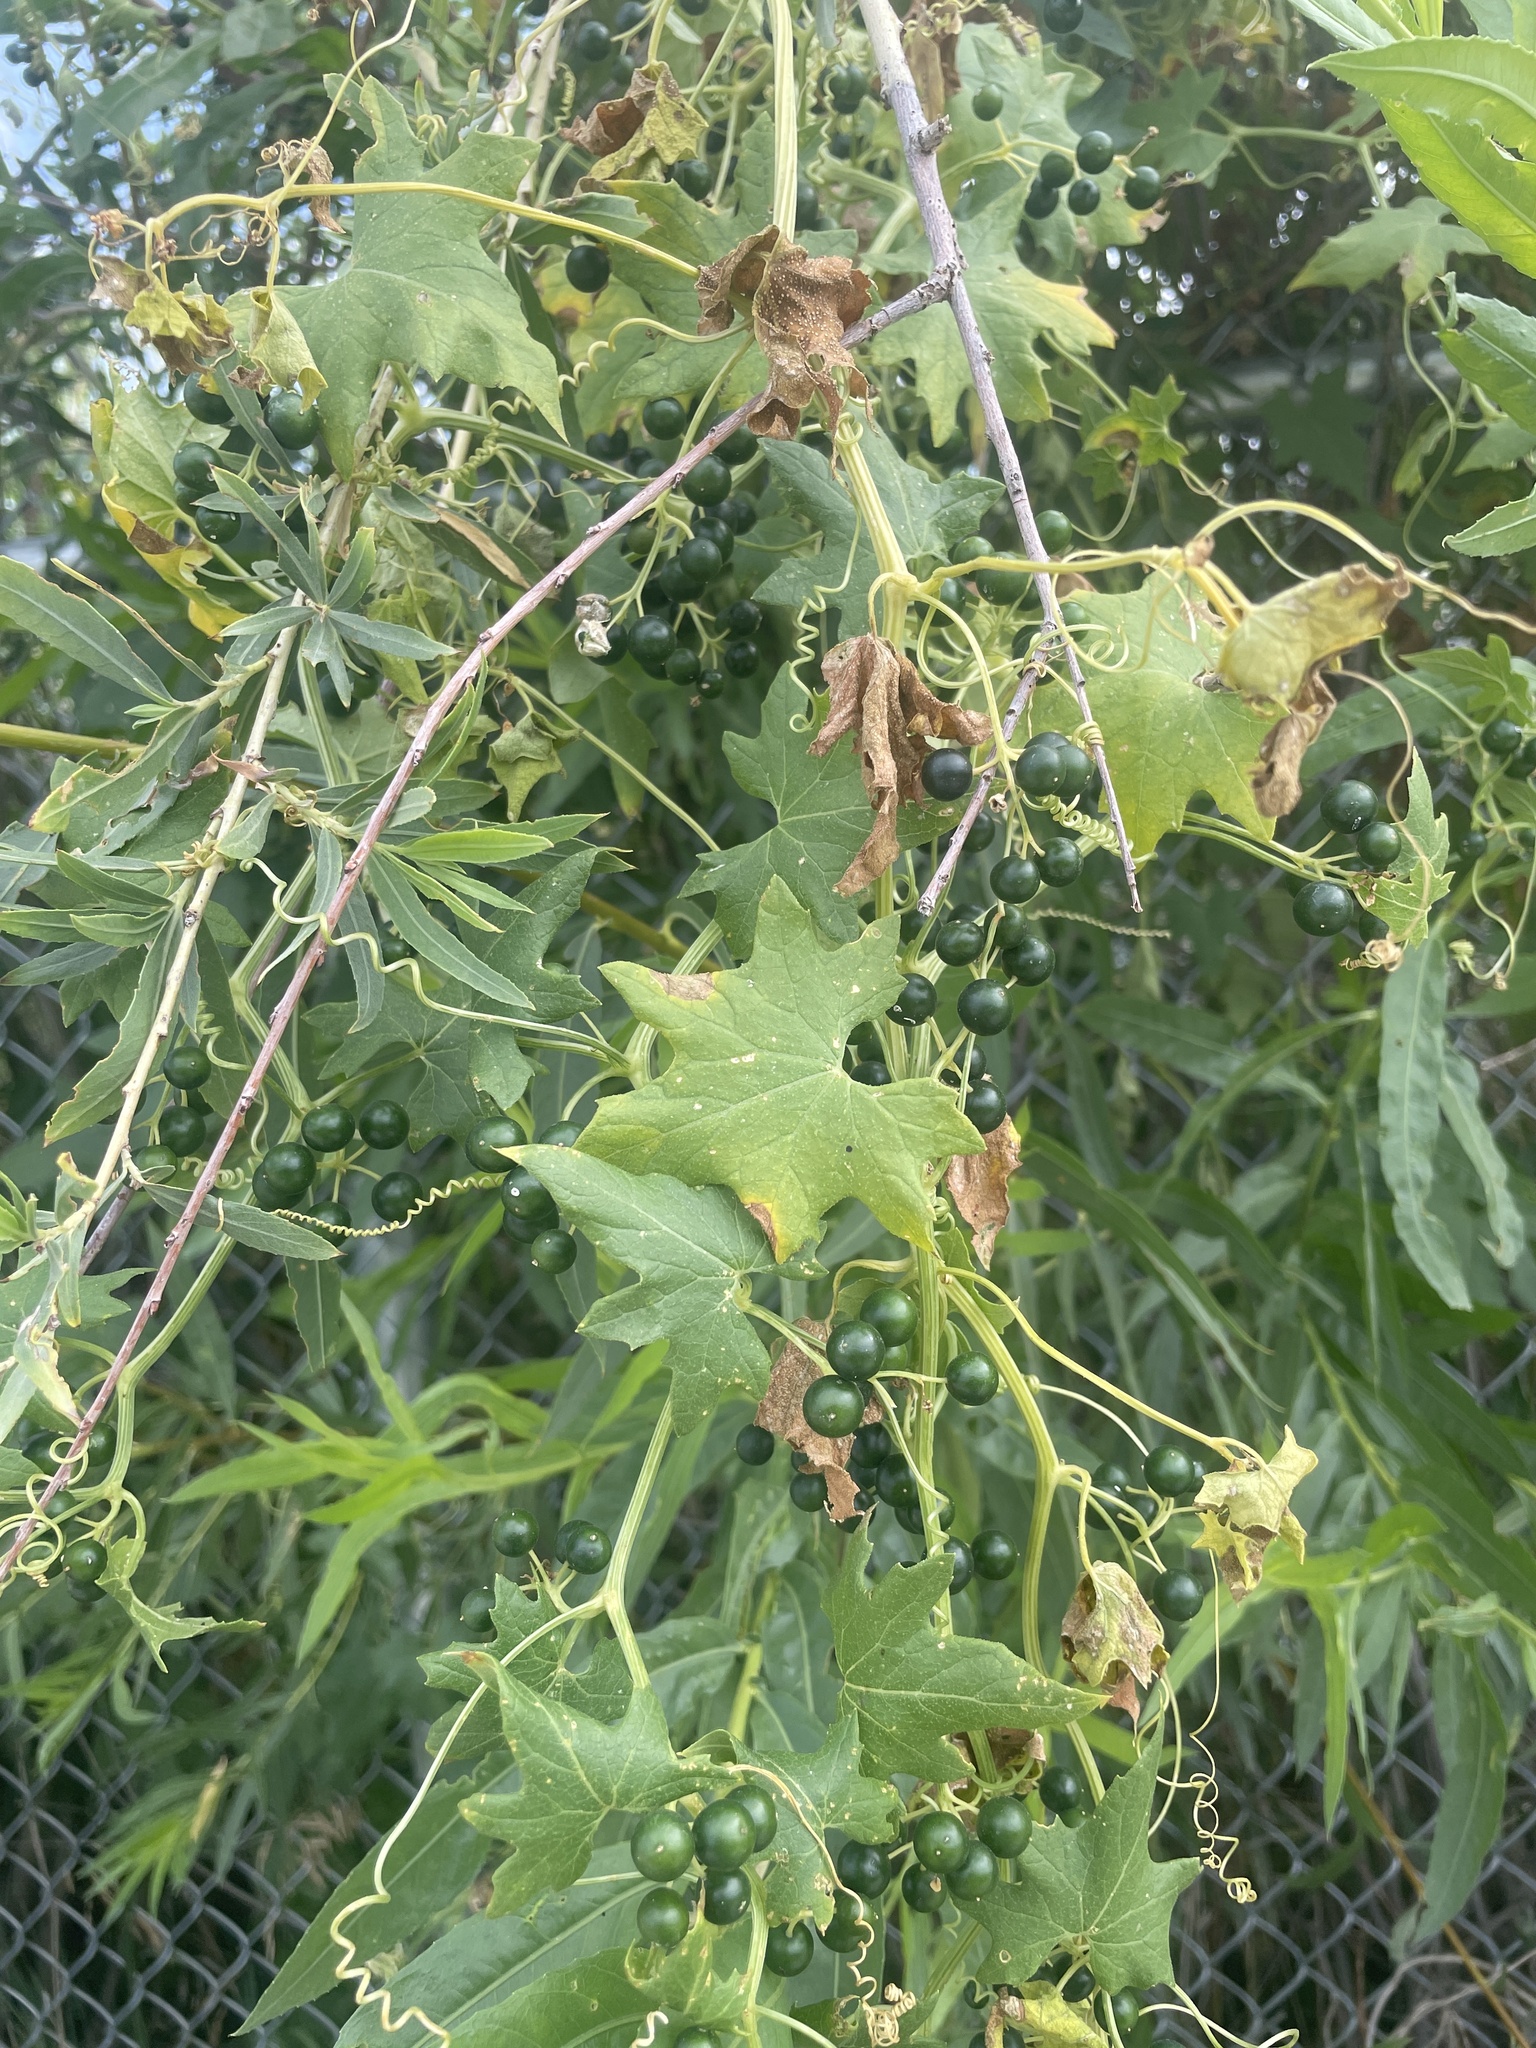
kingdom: Plantae
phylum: Tracheophyta
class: Magnoliopsida
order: Cucurbitales
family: Cucurbitaceae
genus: Bryonia
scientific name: Bryonia alba
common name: White bryony
